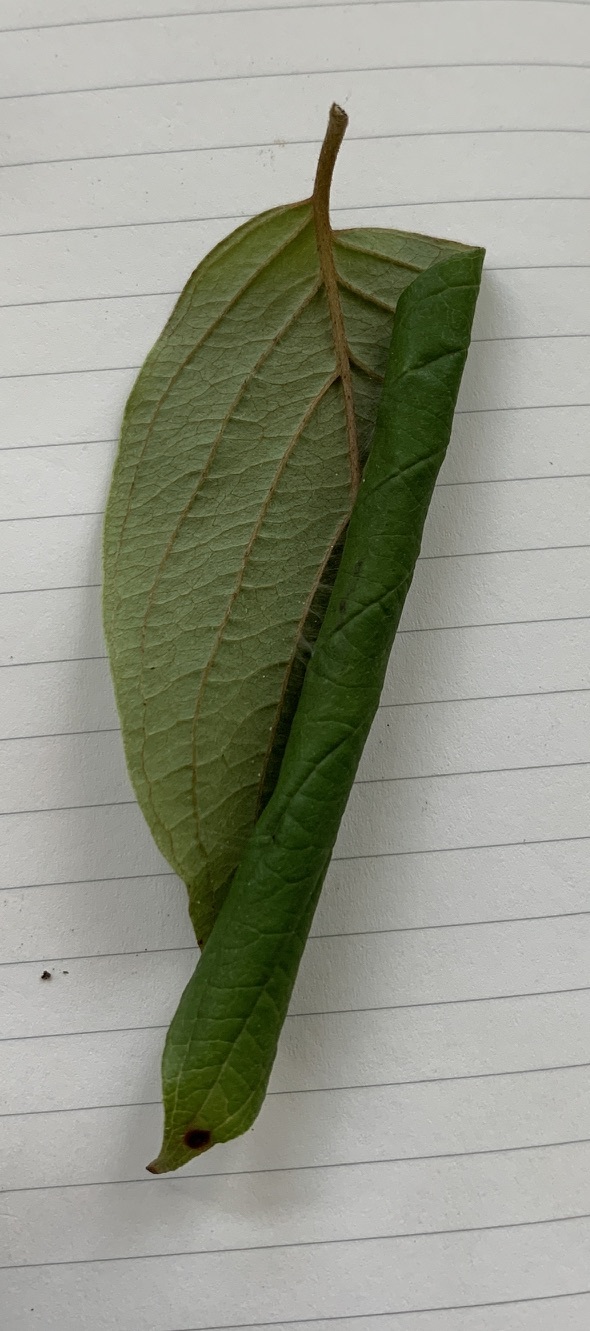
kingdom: Animalia
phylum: Arthropoda
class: Insecta
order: Lepidoptera
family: Gracillariidae
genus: Caloptilia
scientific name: Caloptilia cornusella
